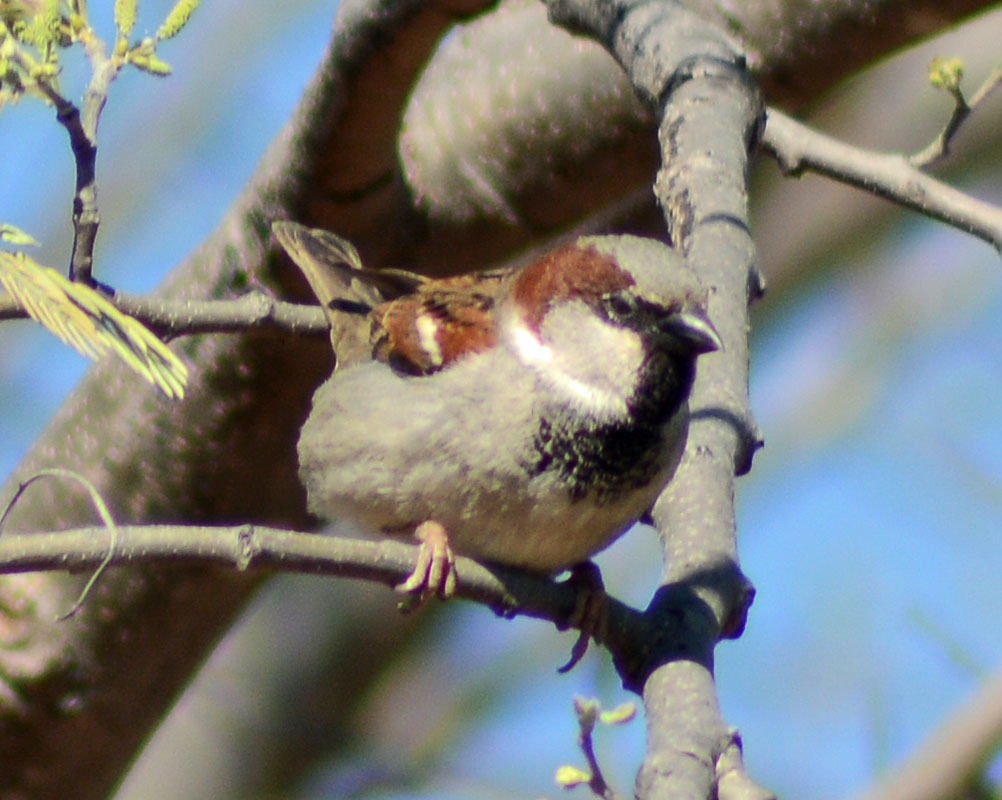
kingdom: Animalia
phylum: Chordata
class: Aves
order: Passeriformes
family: Passeridae
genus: Passer
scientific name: Passer domesticus
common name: House sparrow
